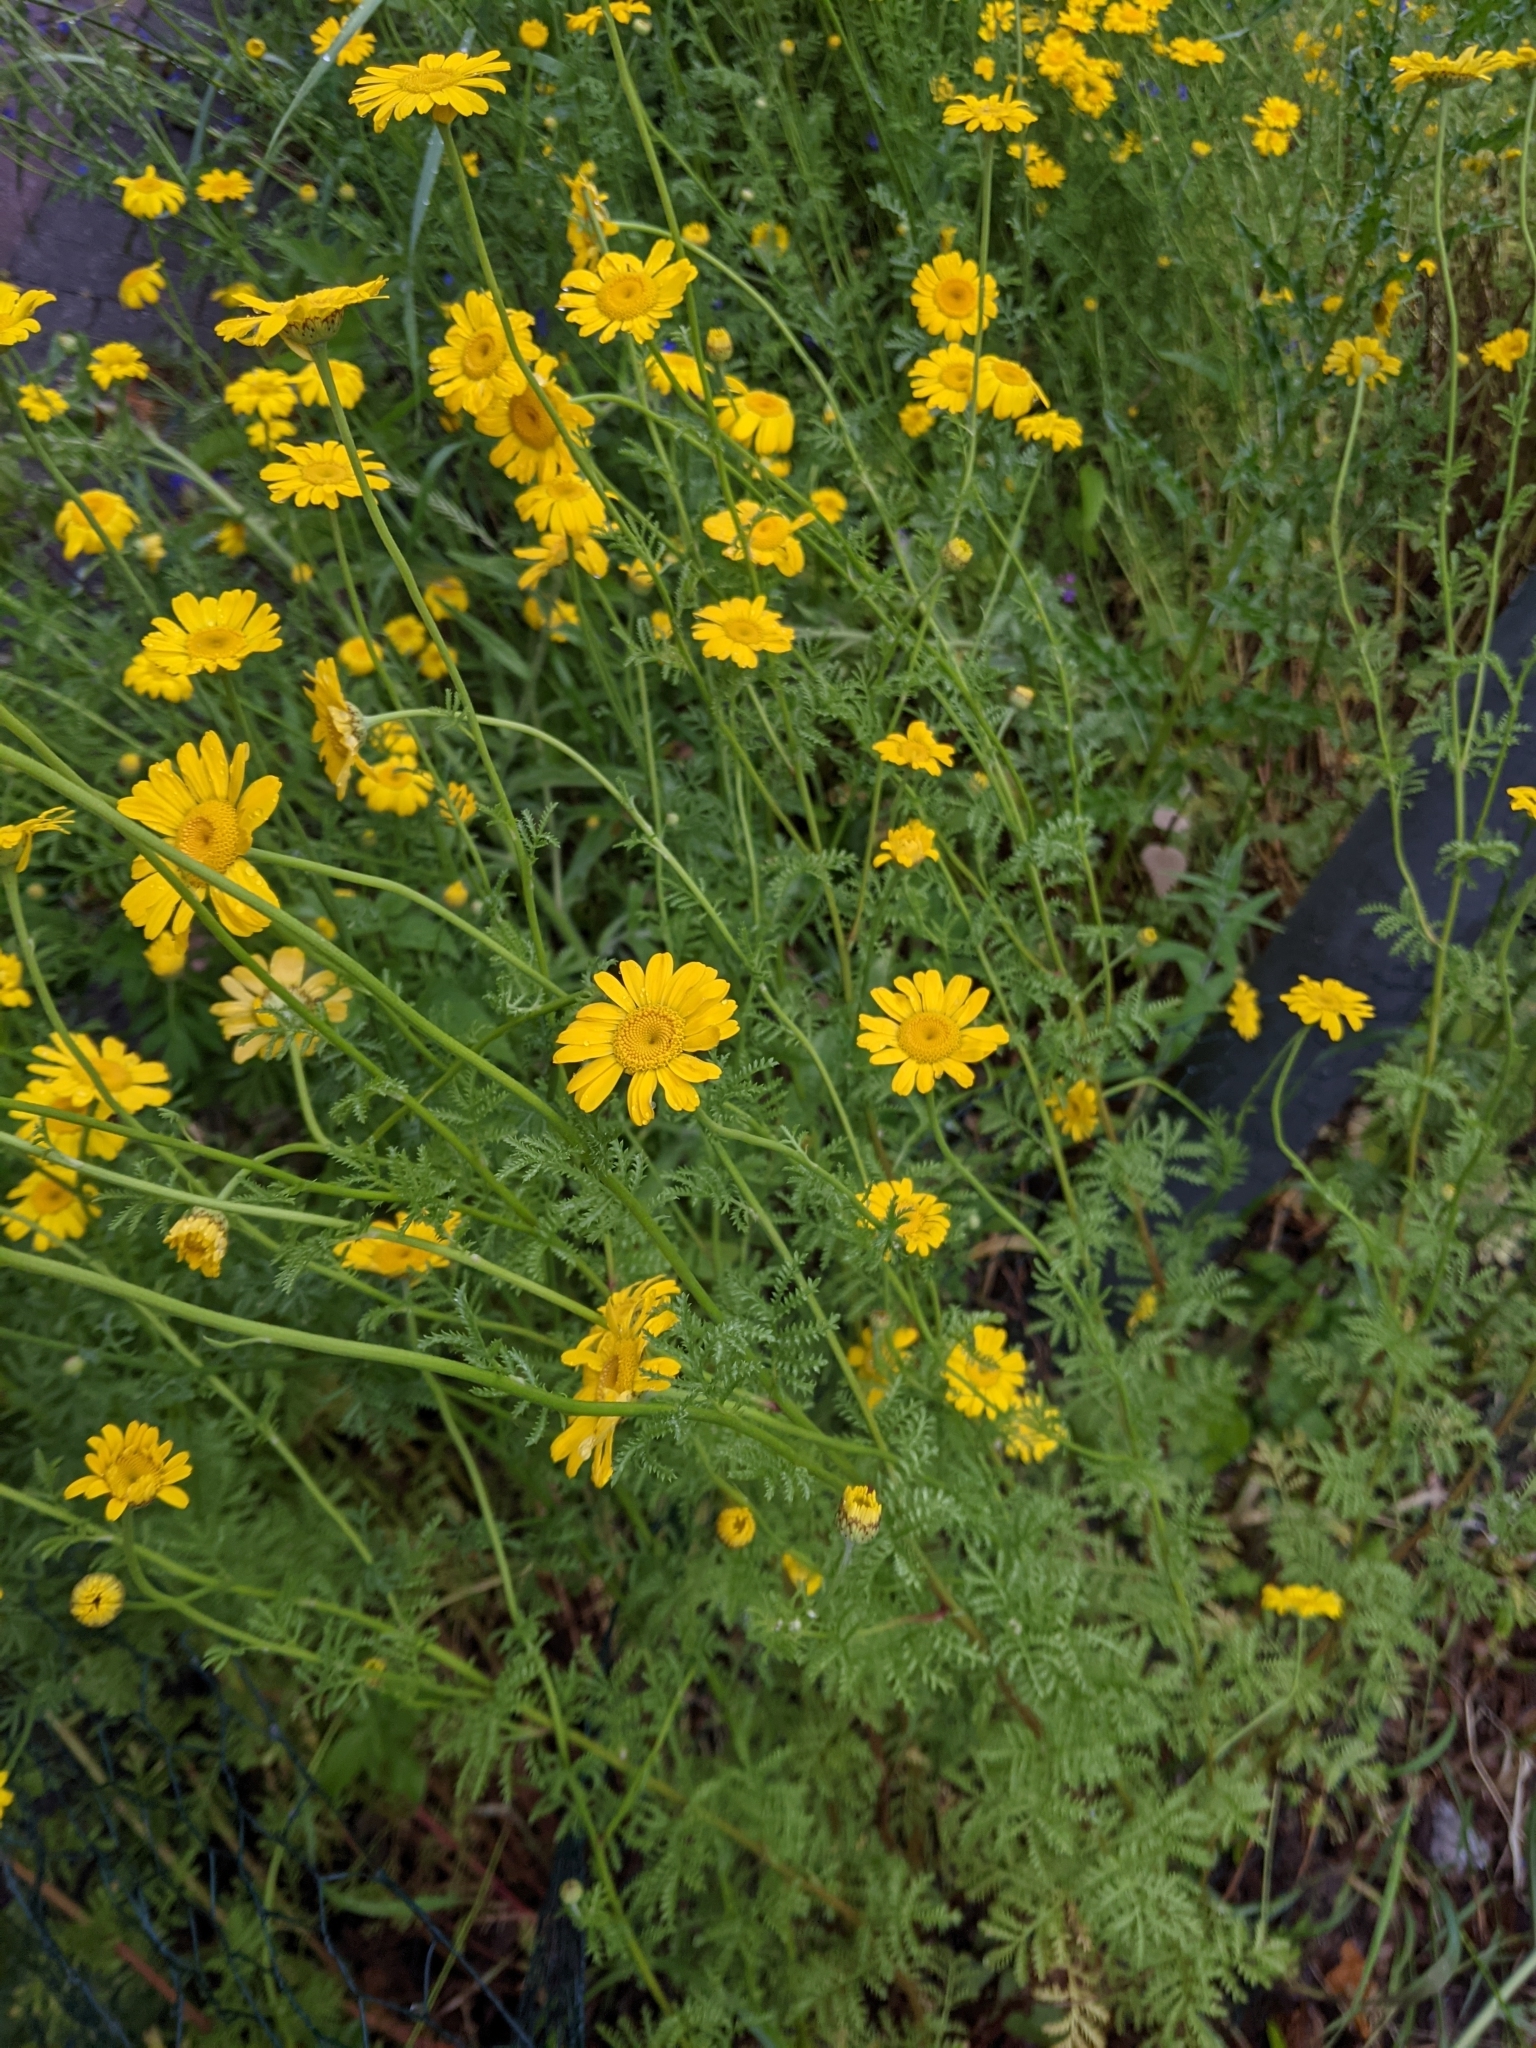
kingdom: Plantae
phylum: Tracheophyta
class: Magnoliopsida
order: Asterales
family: Asteraceae
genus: Cota
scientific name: Cota tinctoria
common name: Golden chamomile
